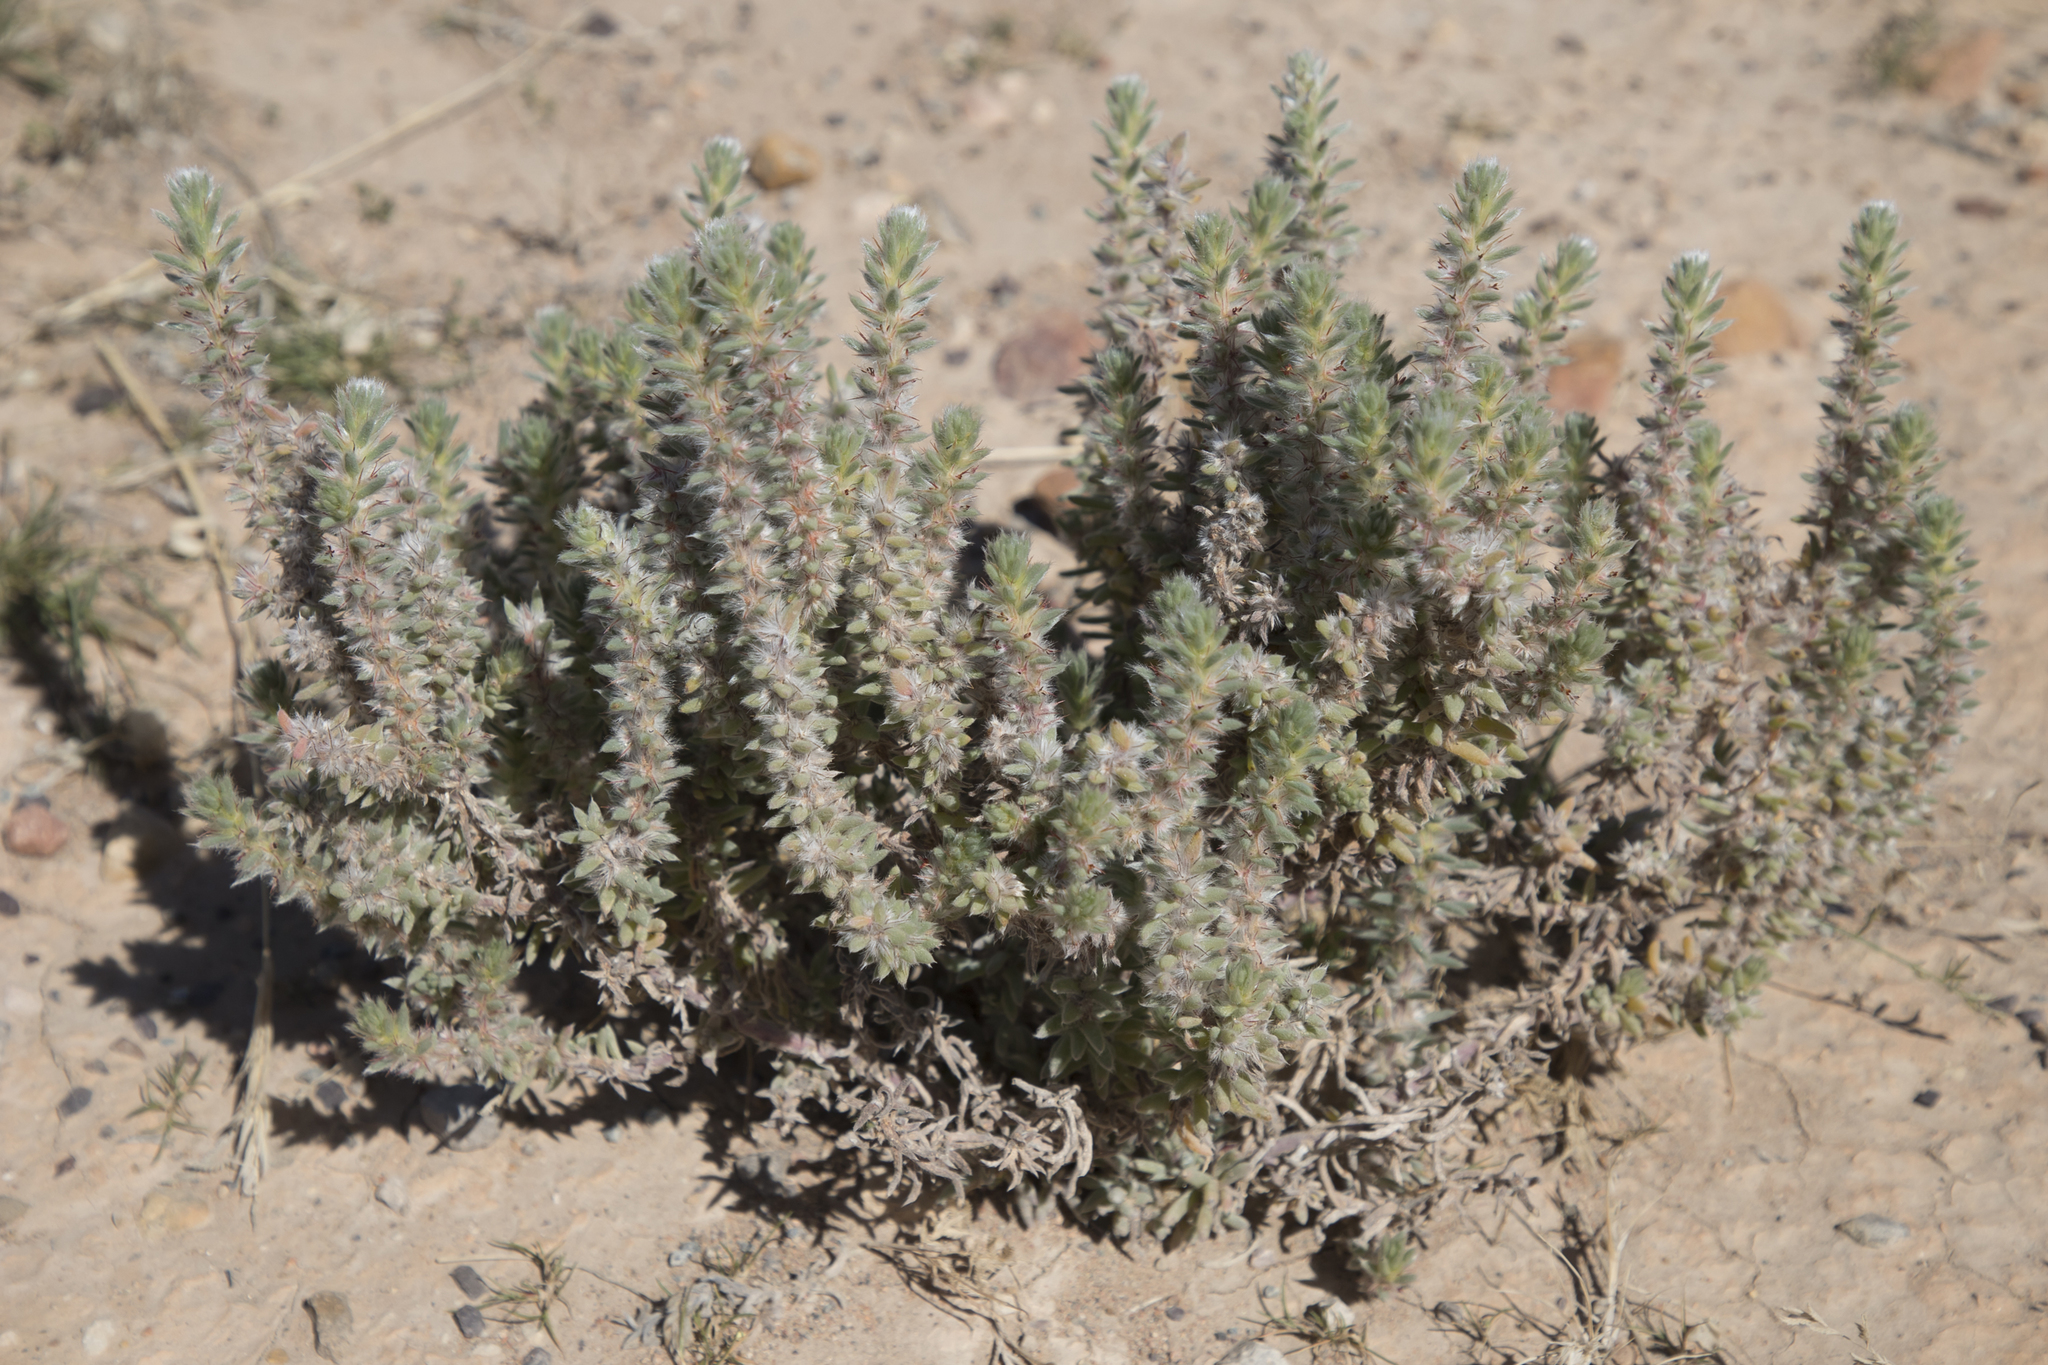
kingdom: Plantae
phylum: Tracheophyta
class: Magnoliopsida
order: Caryophyllales
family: Amaranthaceae
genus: Sclerolaena
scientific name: Sclerolaena lanicuspis
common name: Copperbur
